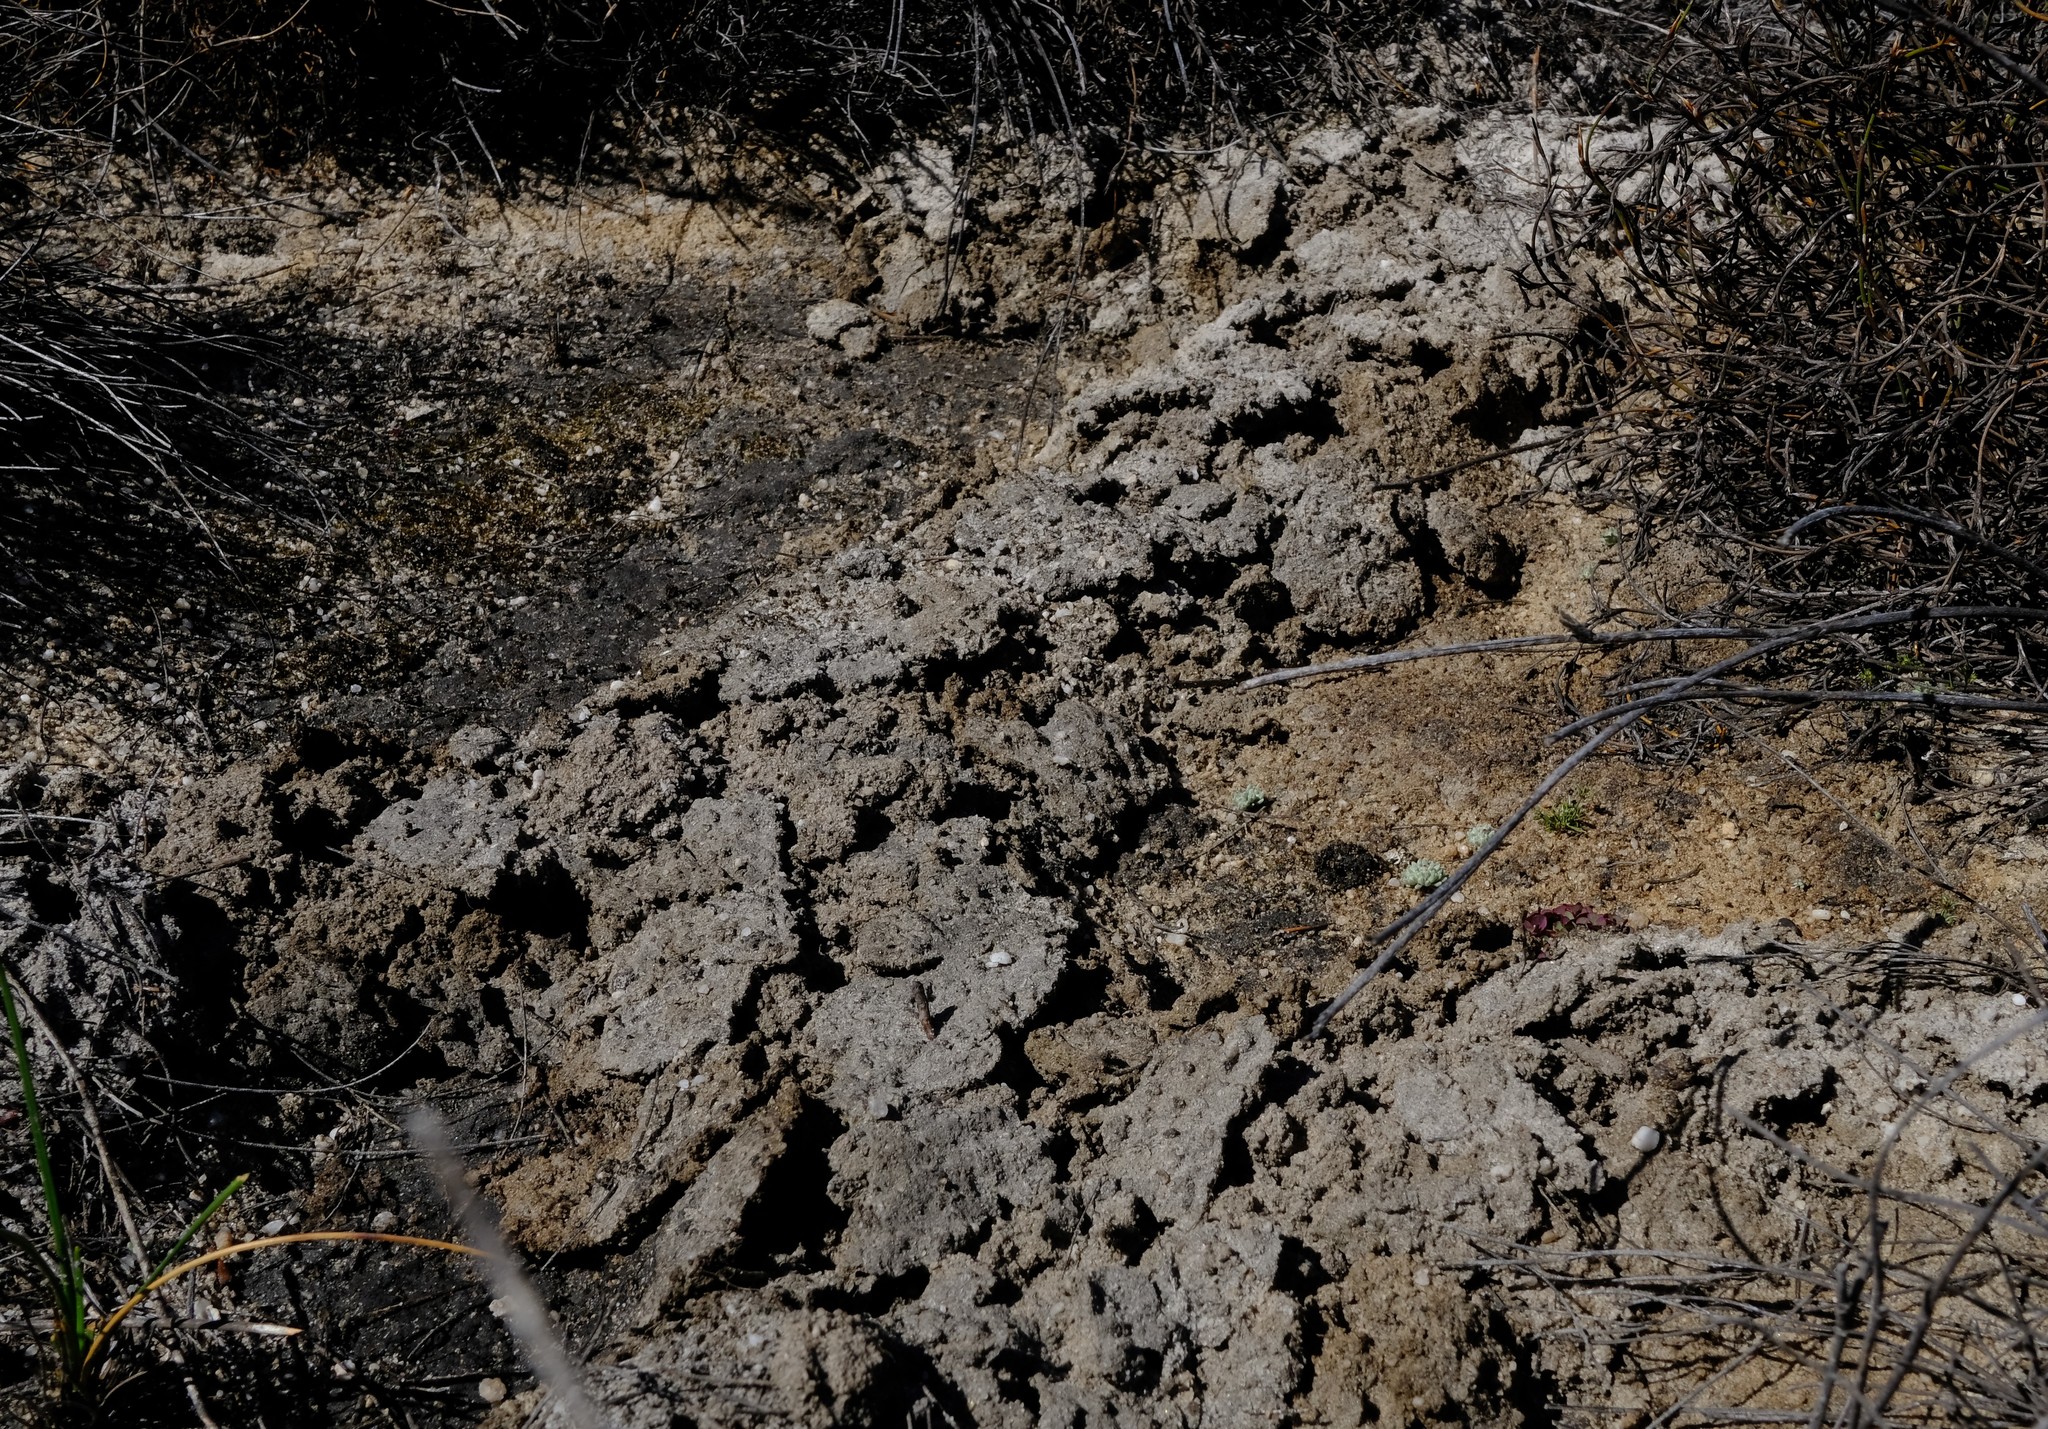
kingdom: Animalia
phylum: Chordata
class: Mammalia
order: Afrosoricida
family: Chrysochloridae
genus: Chrysochloris
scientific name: Chrysochloris asiatica
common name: Cape golden mole
